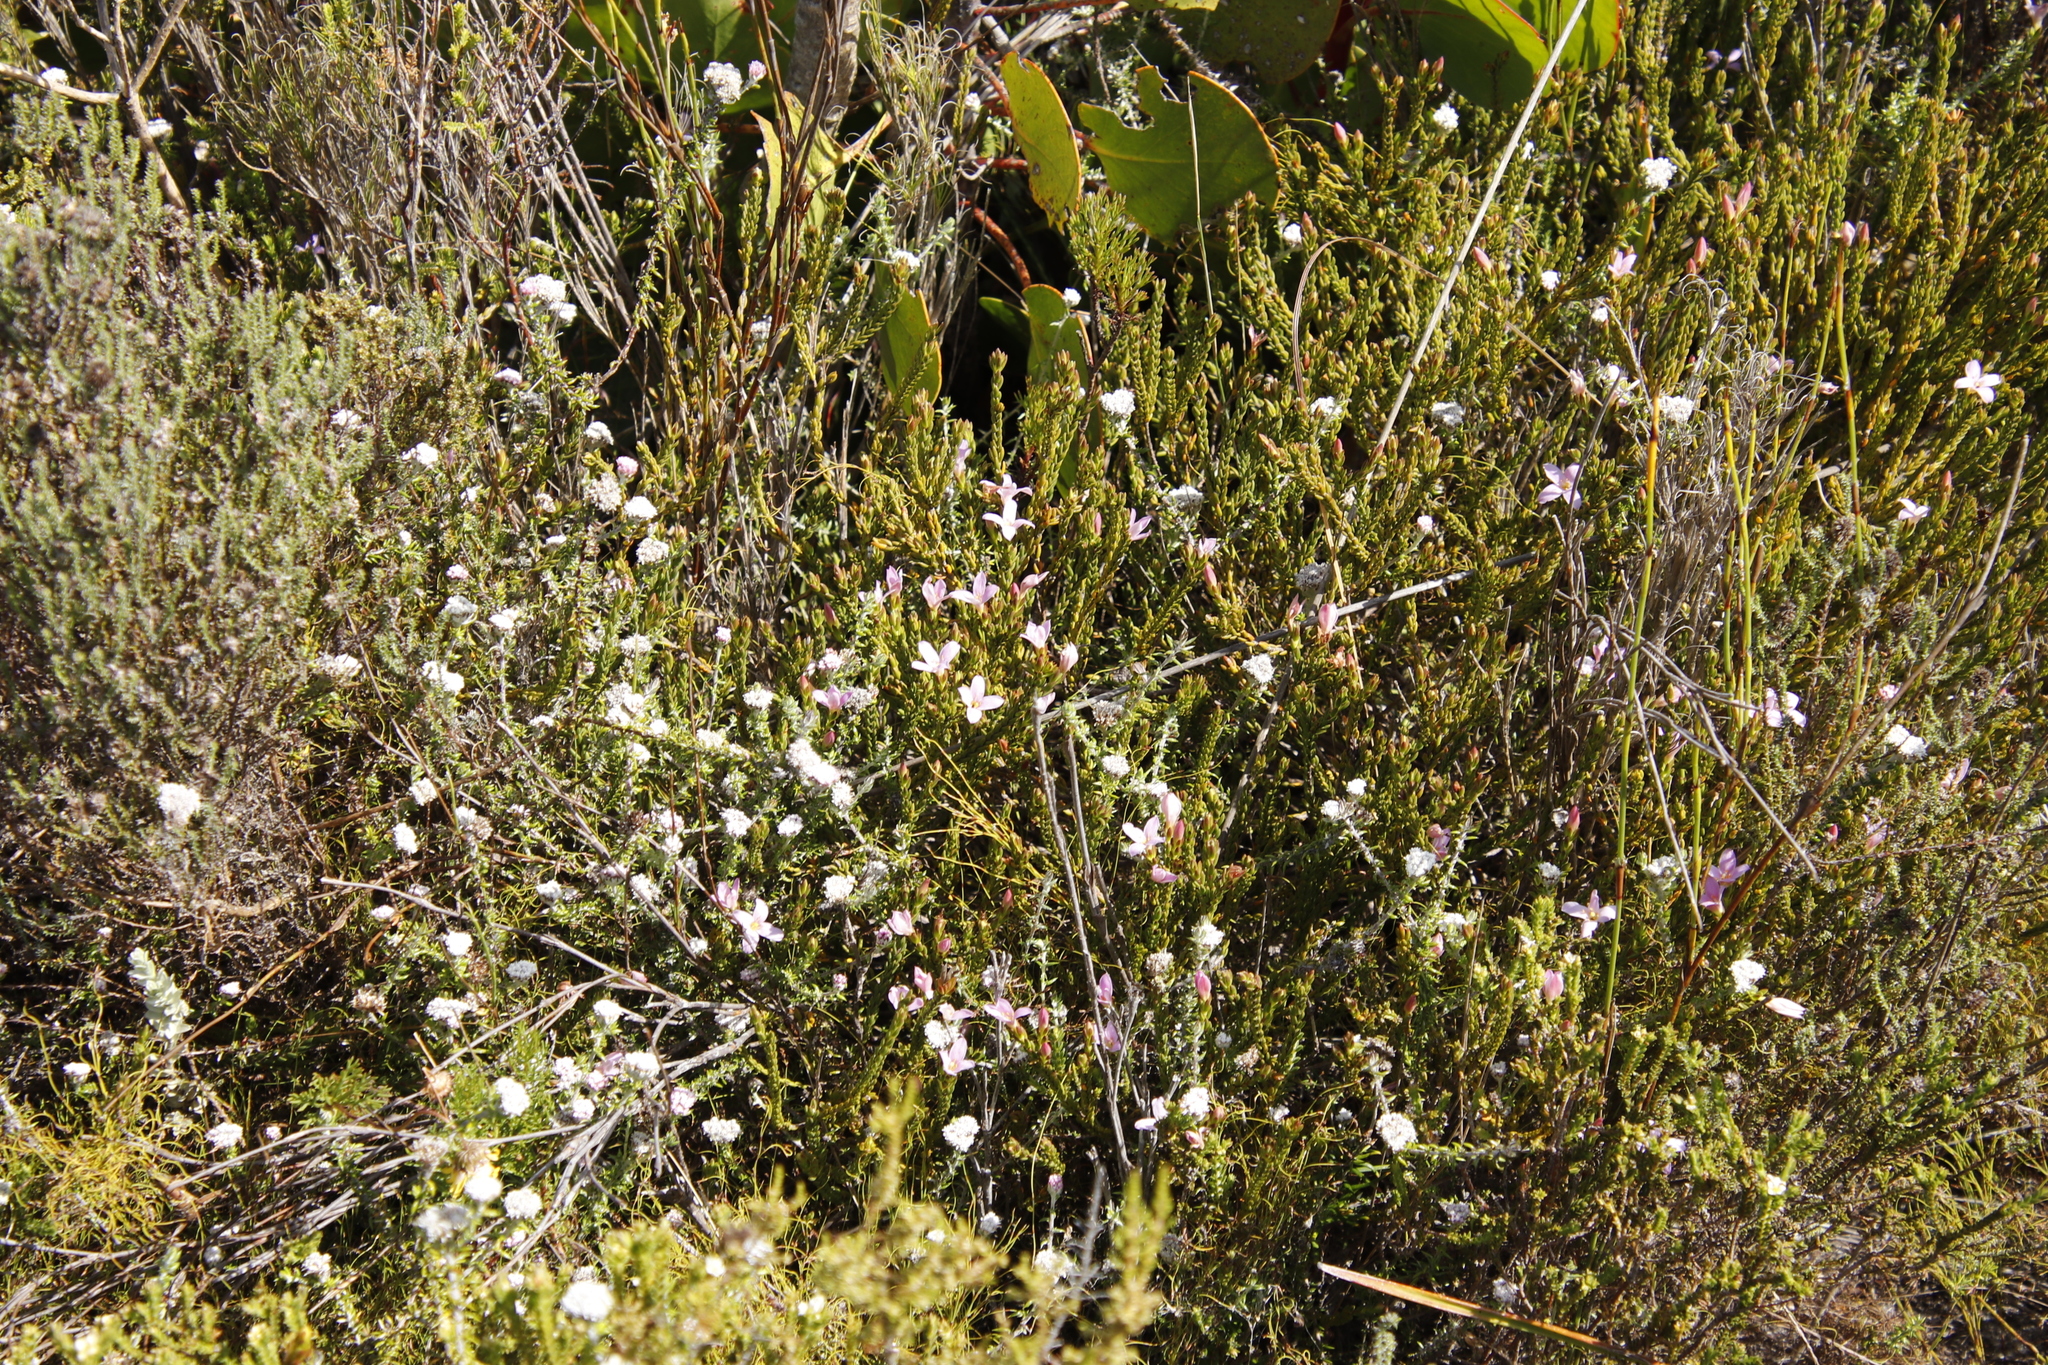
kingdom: Plantae
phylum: Tracheophyta
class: Magnoliopsida
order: Malvales
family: Thymelaeaceae
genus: Lachnaea
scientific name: Lachnaea grandiflora
